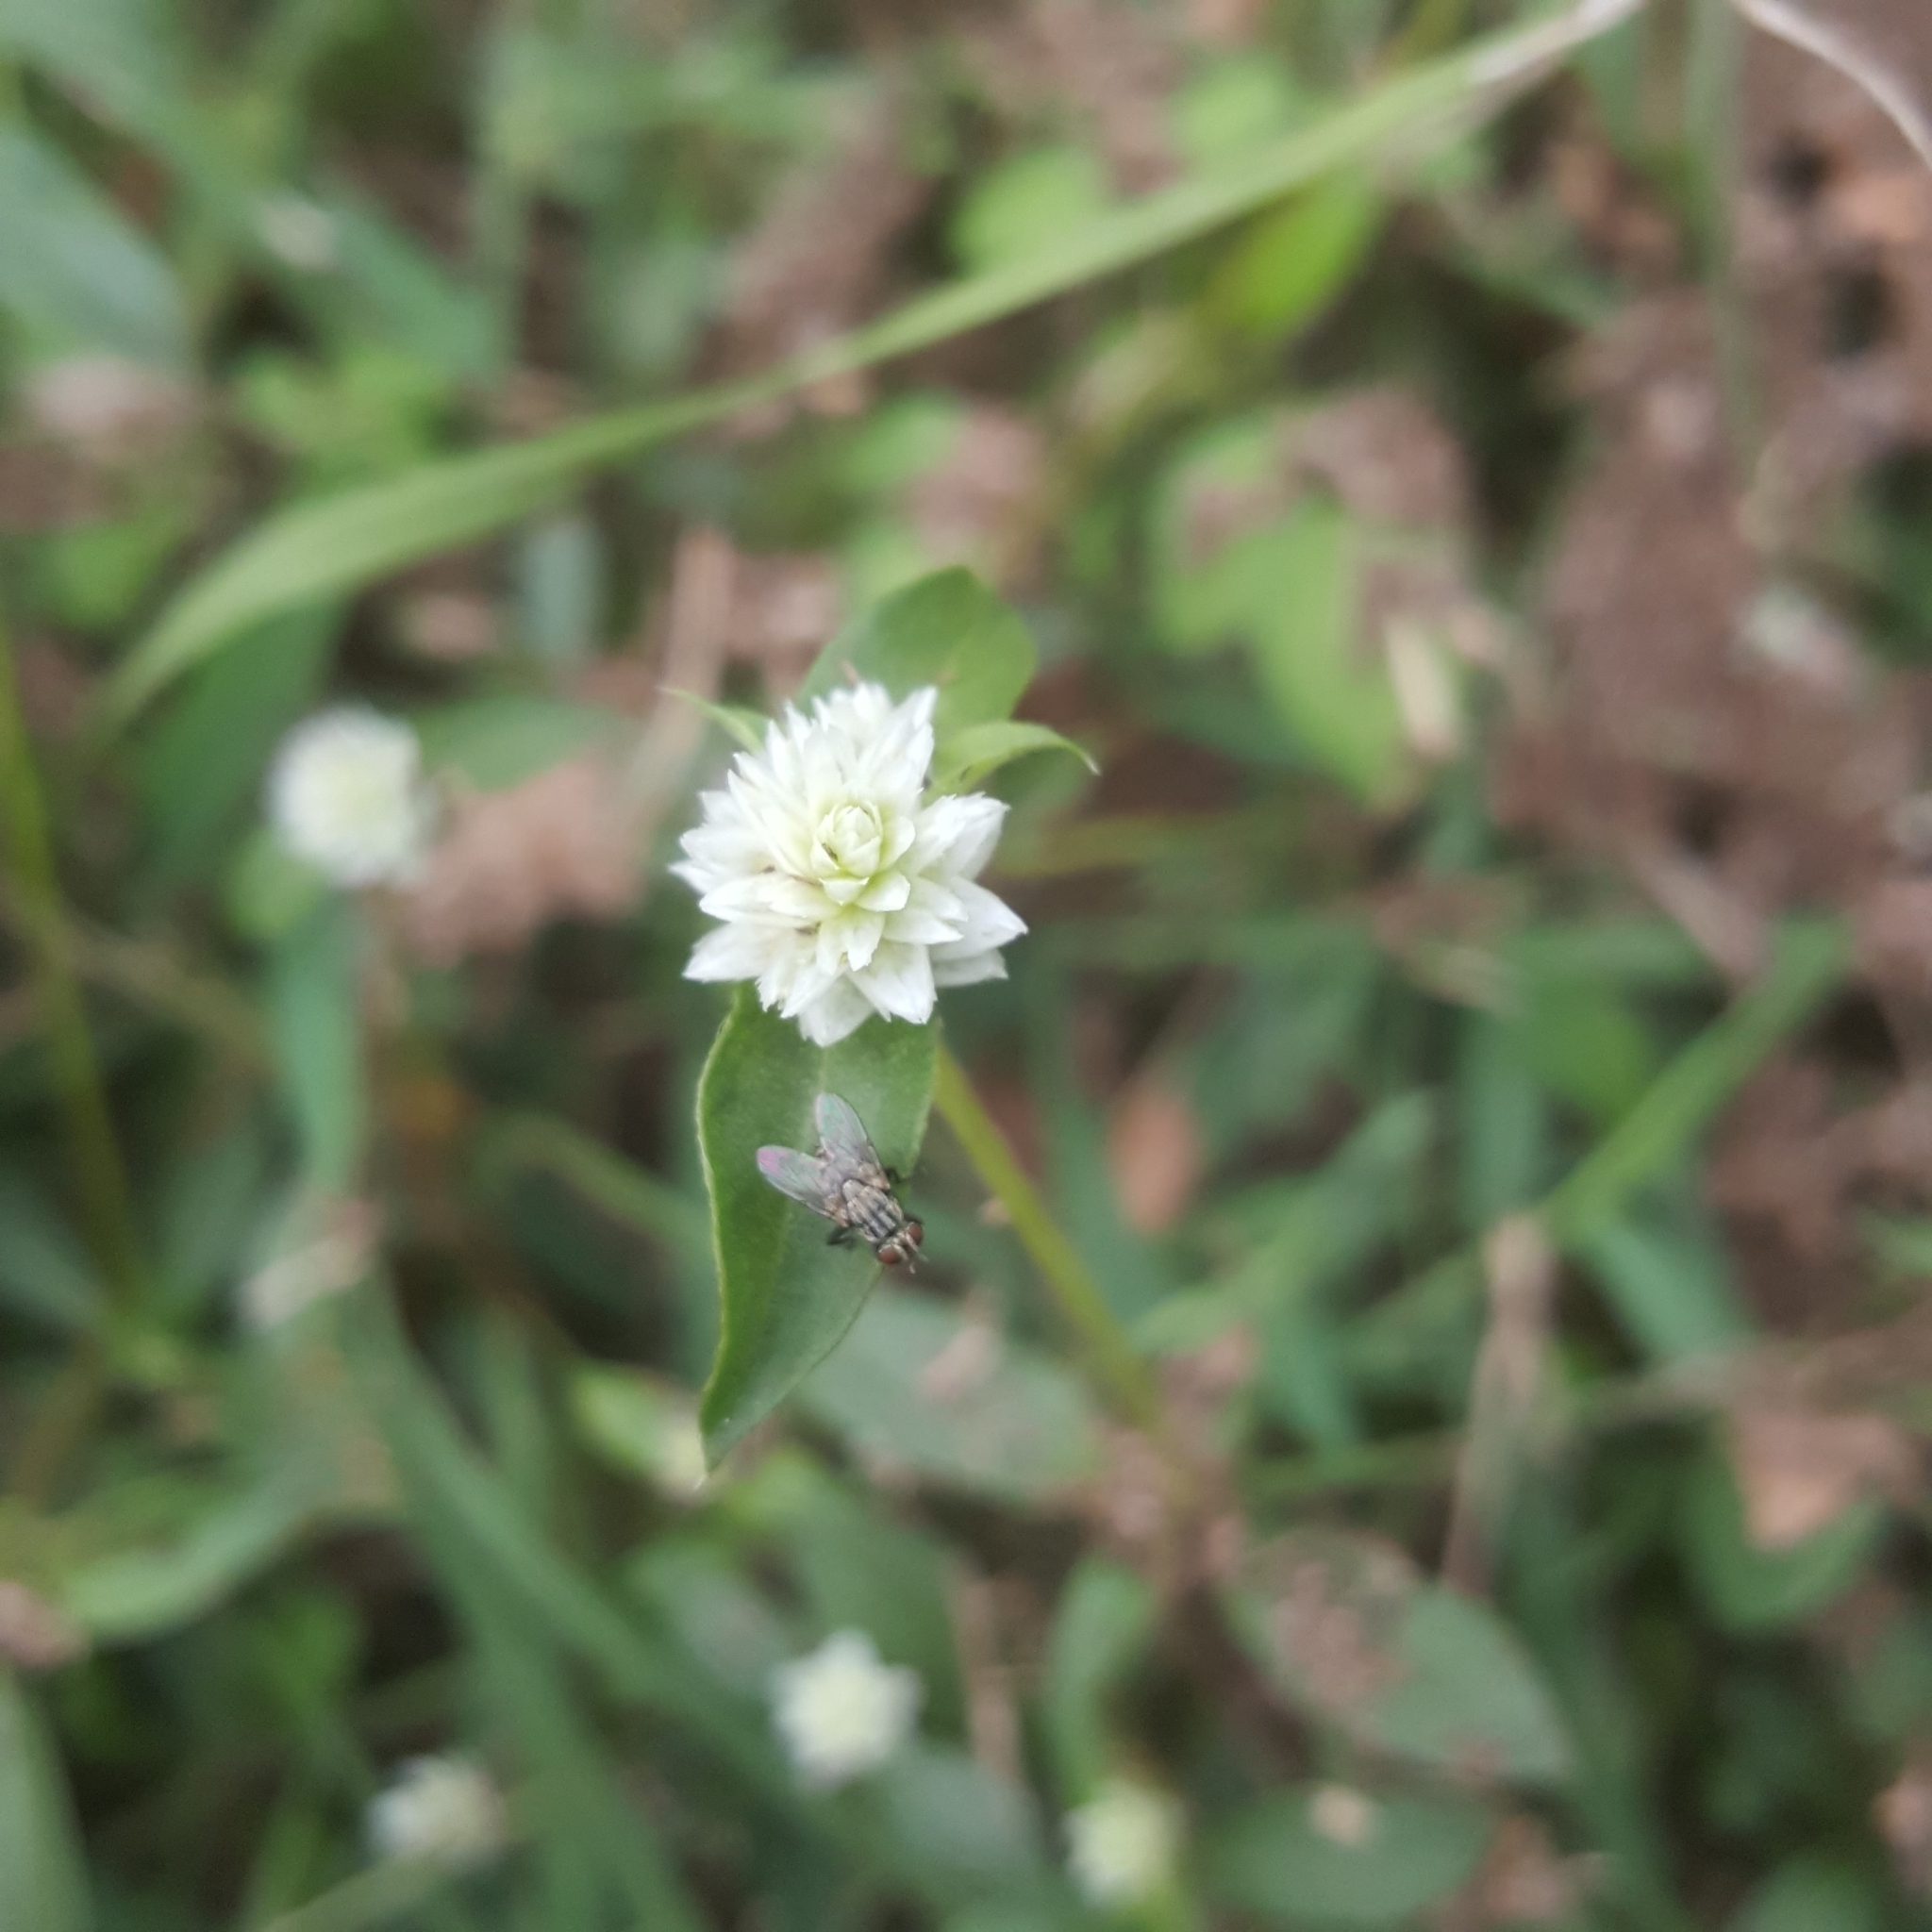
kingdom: Plantae
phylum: Tracheophyta
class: Magnoliopsida
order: Caryophyllales
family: Amaranthaceae
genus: Gomphrena
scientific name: Gomphrena serrata
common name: Arrasa con todo
